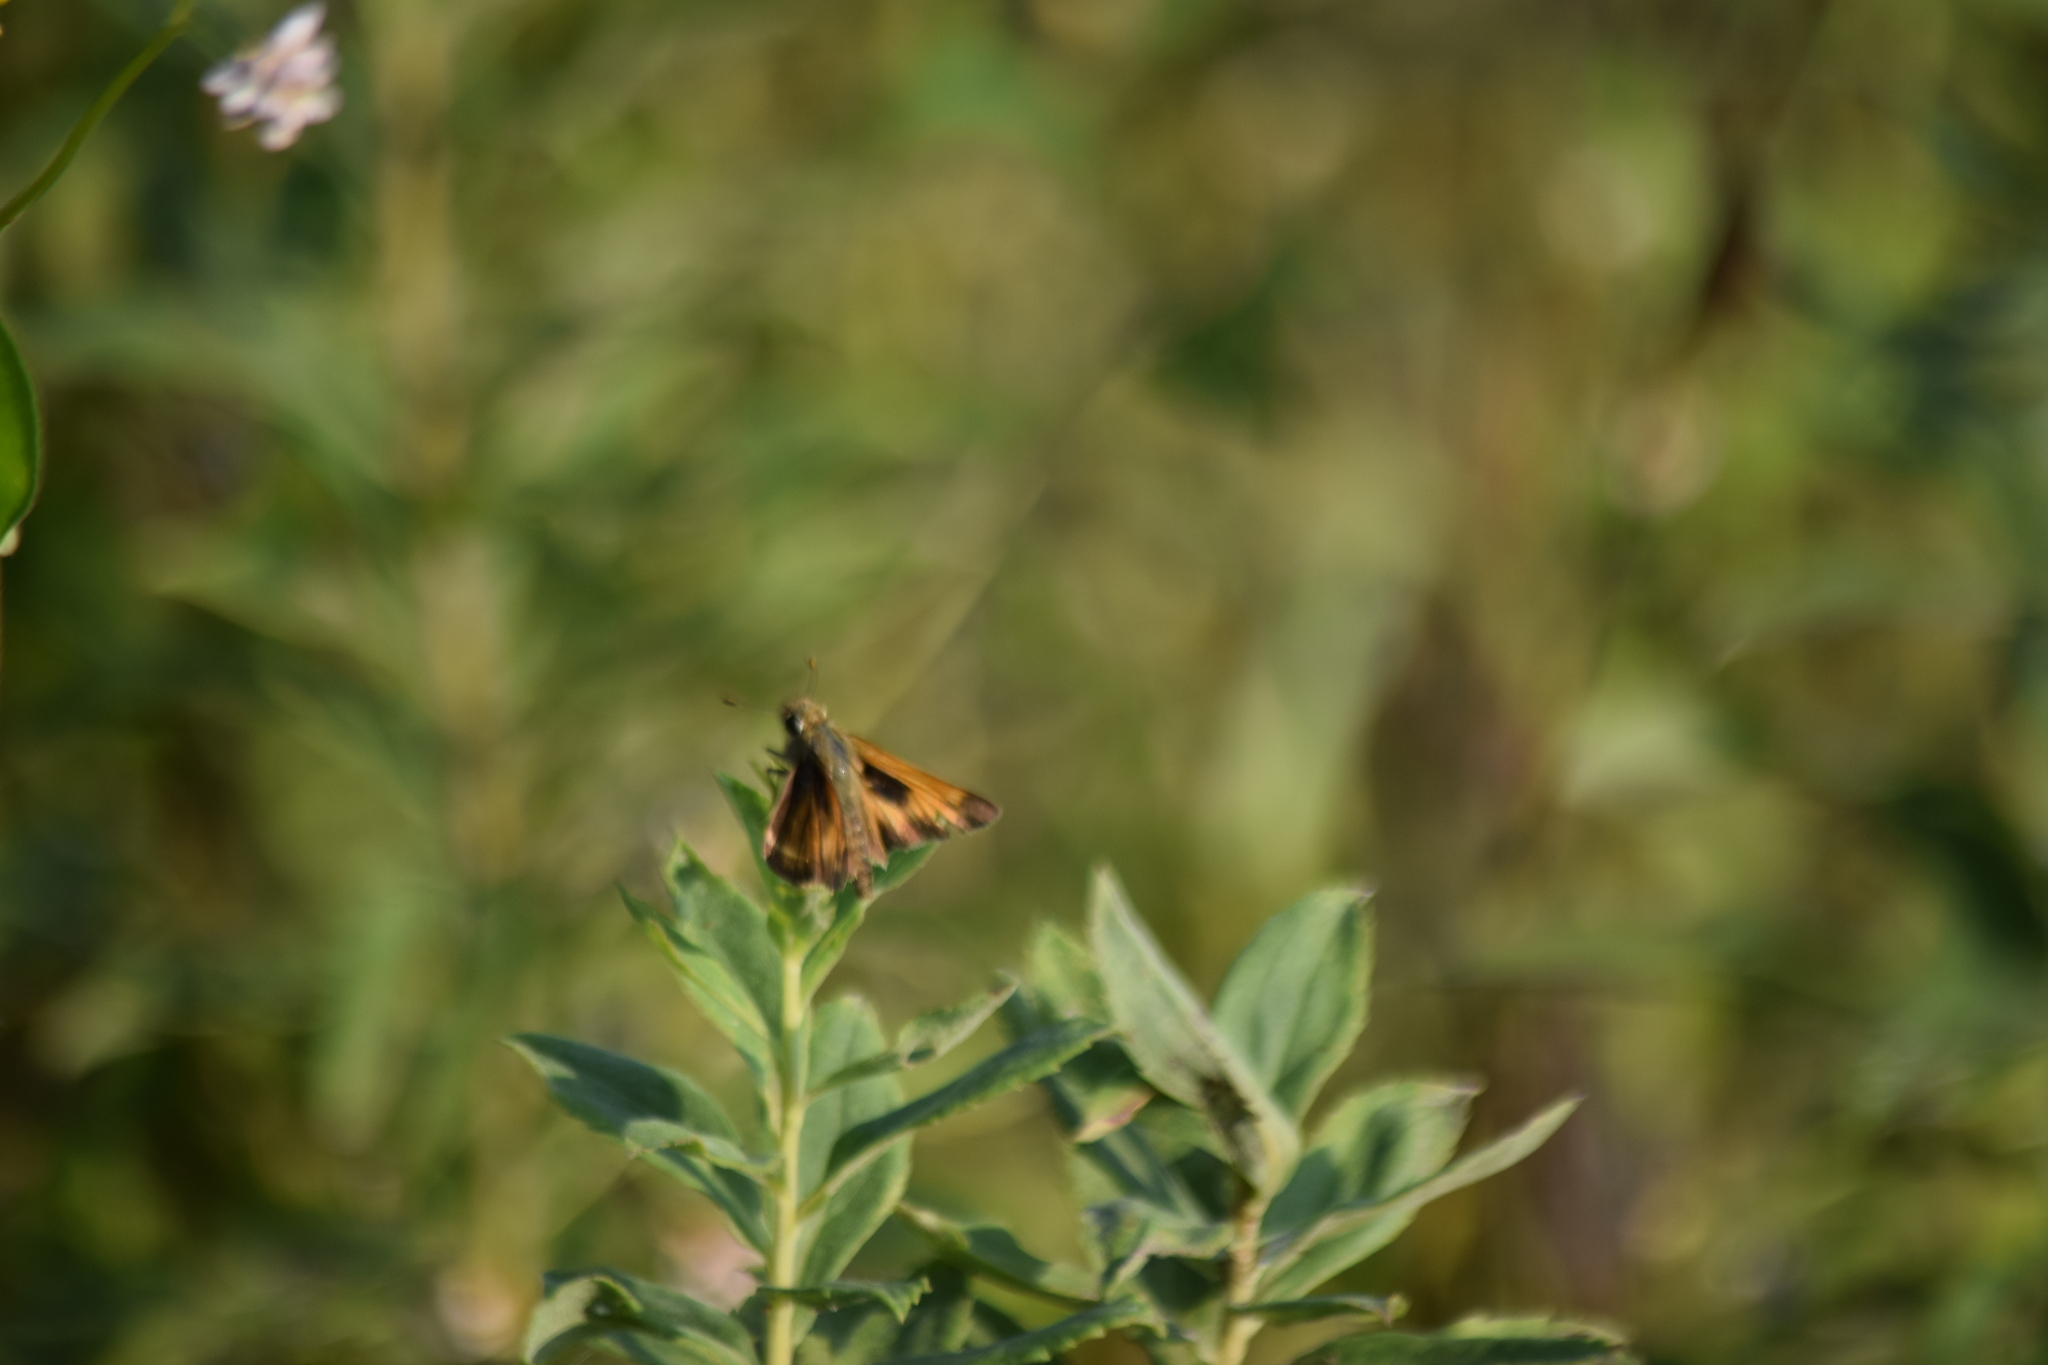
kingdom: Animalia
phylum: Arthropoda
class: Insecta
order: Lepidoptera
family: Hesperiidae
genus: Atalopedes
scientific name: Atalopedes
